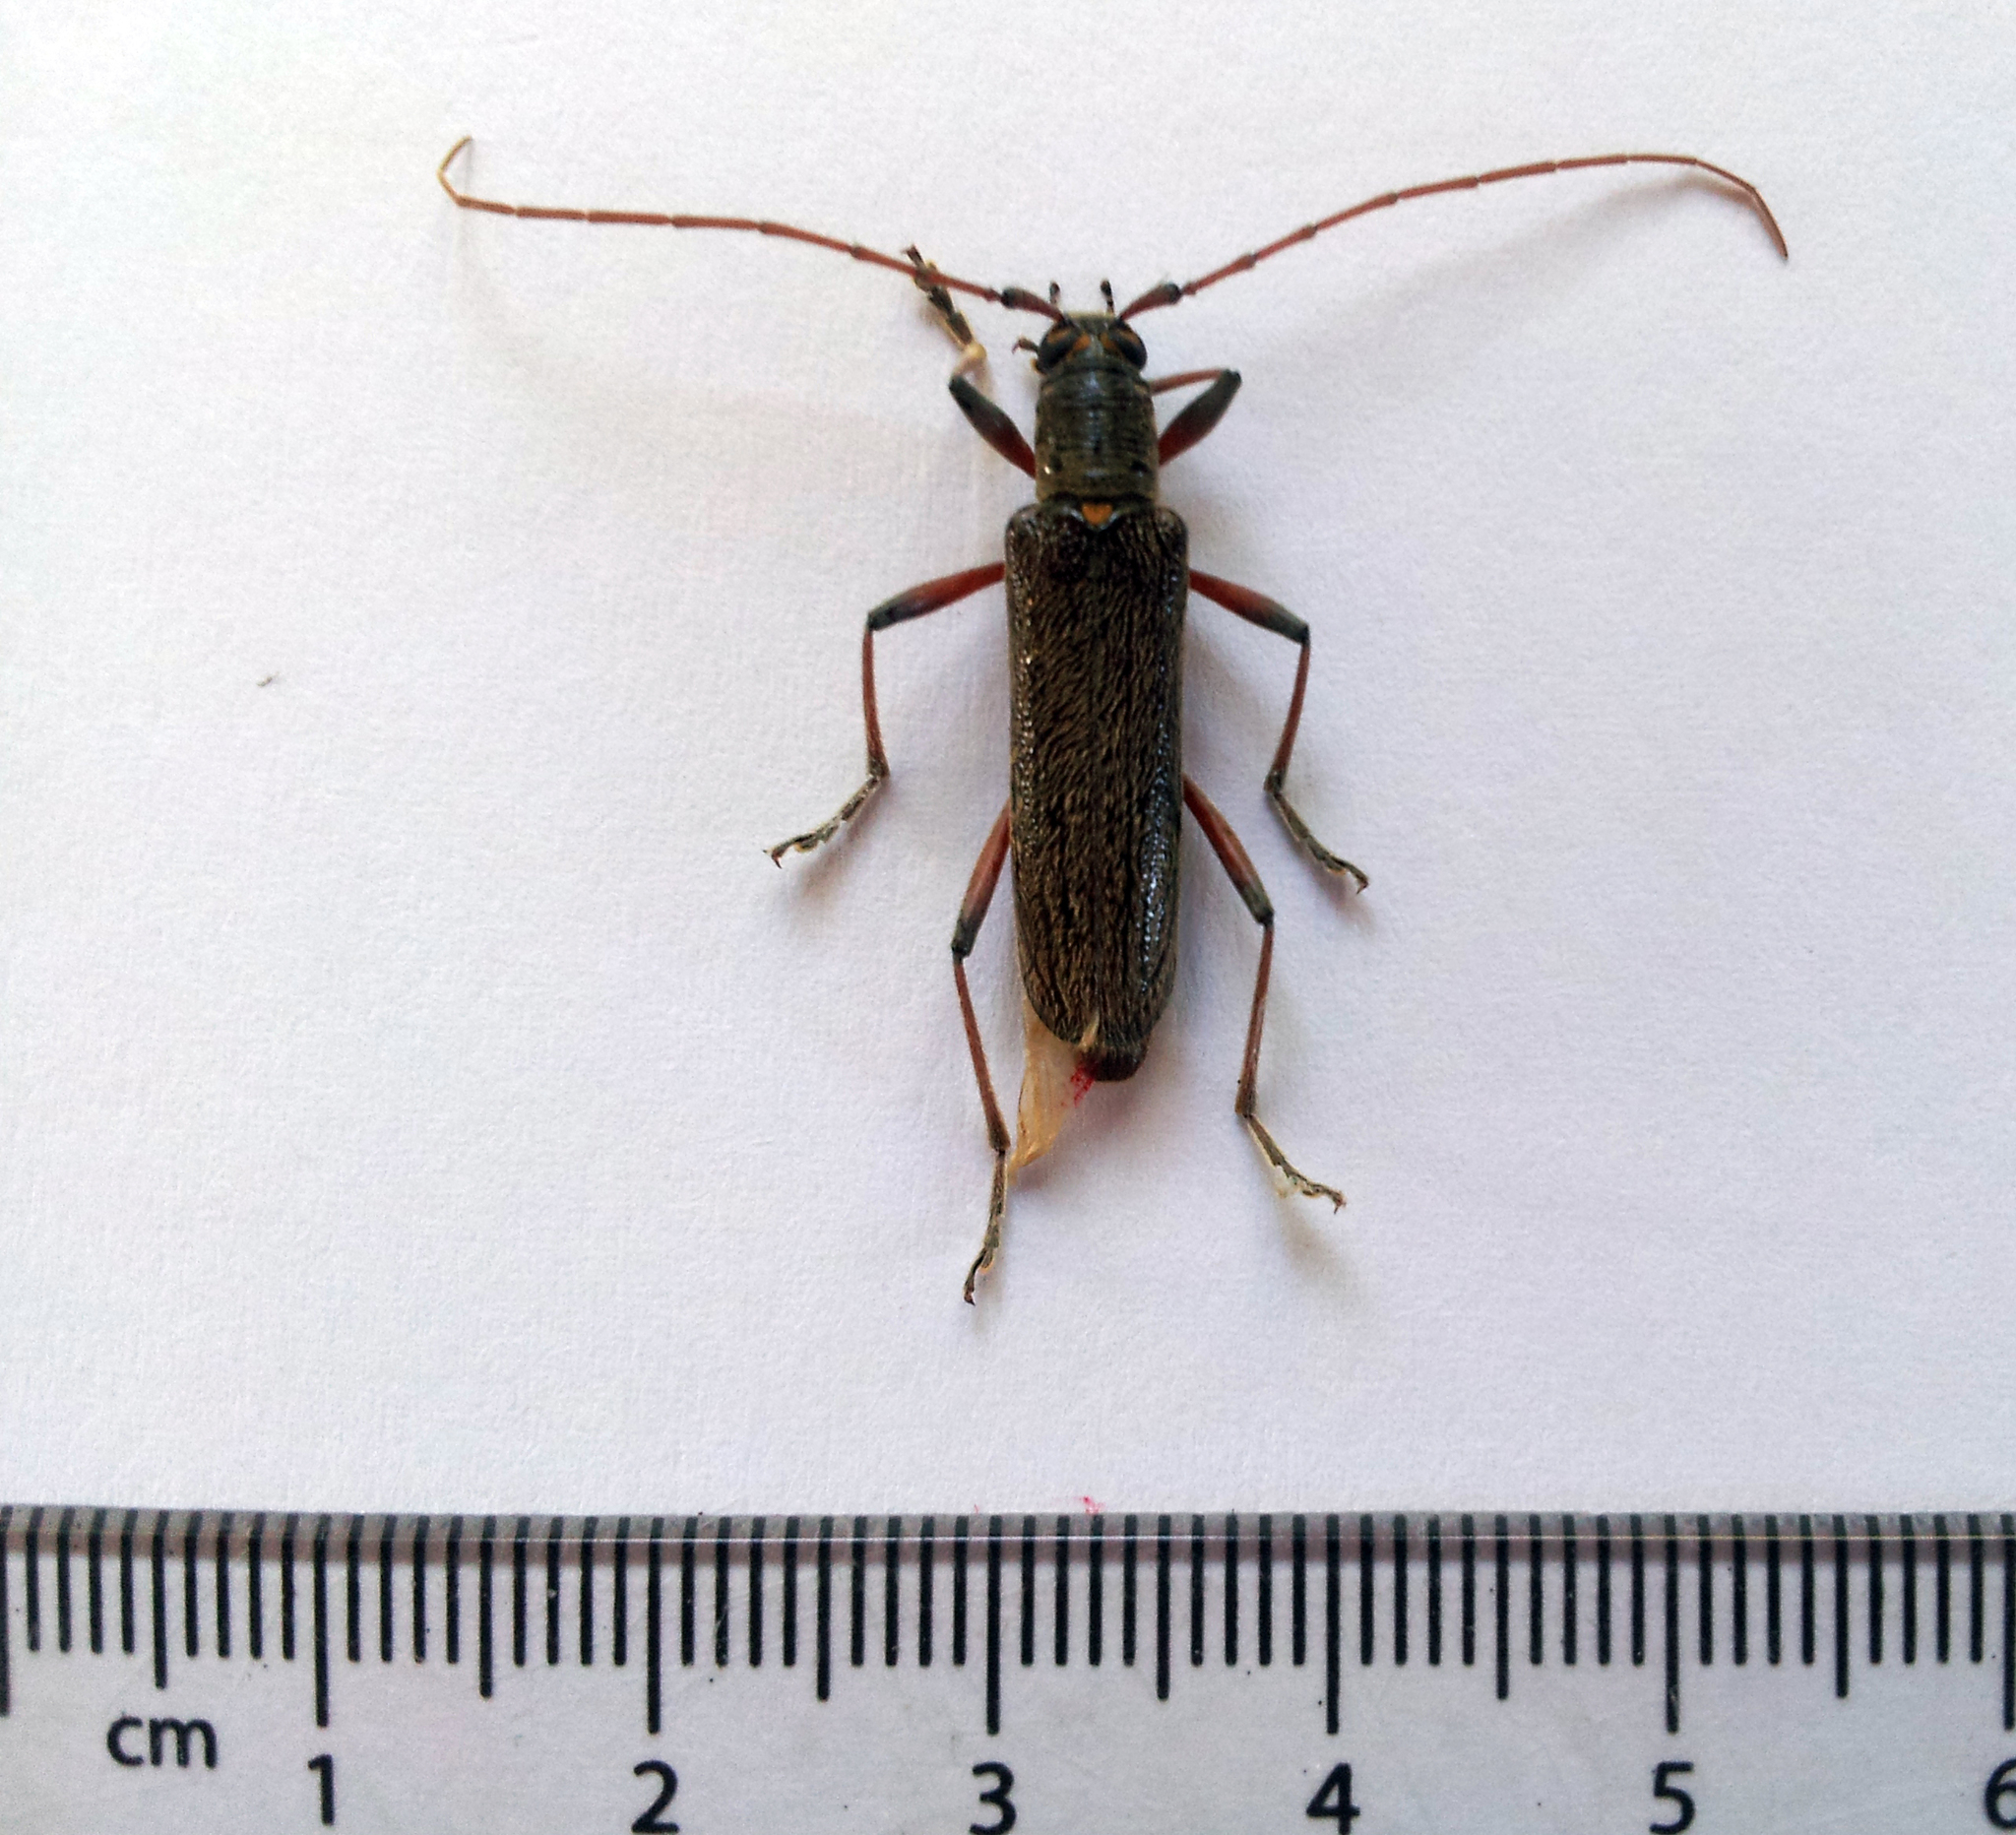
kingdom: Animalia
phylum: Arthropoda
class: Insecta
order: Coleoptera
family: Cerambycidae
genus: Oemona
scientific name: Oemona hirta
